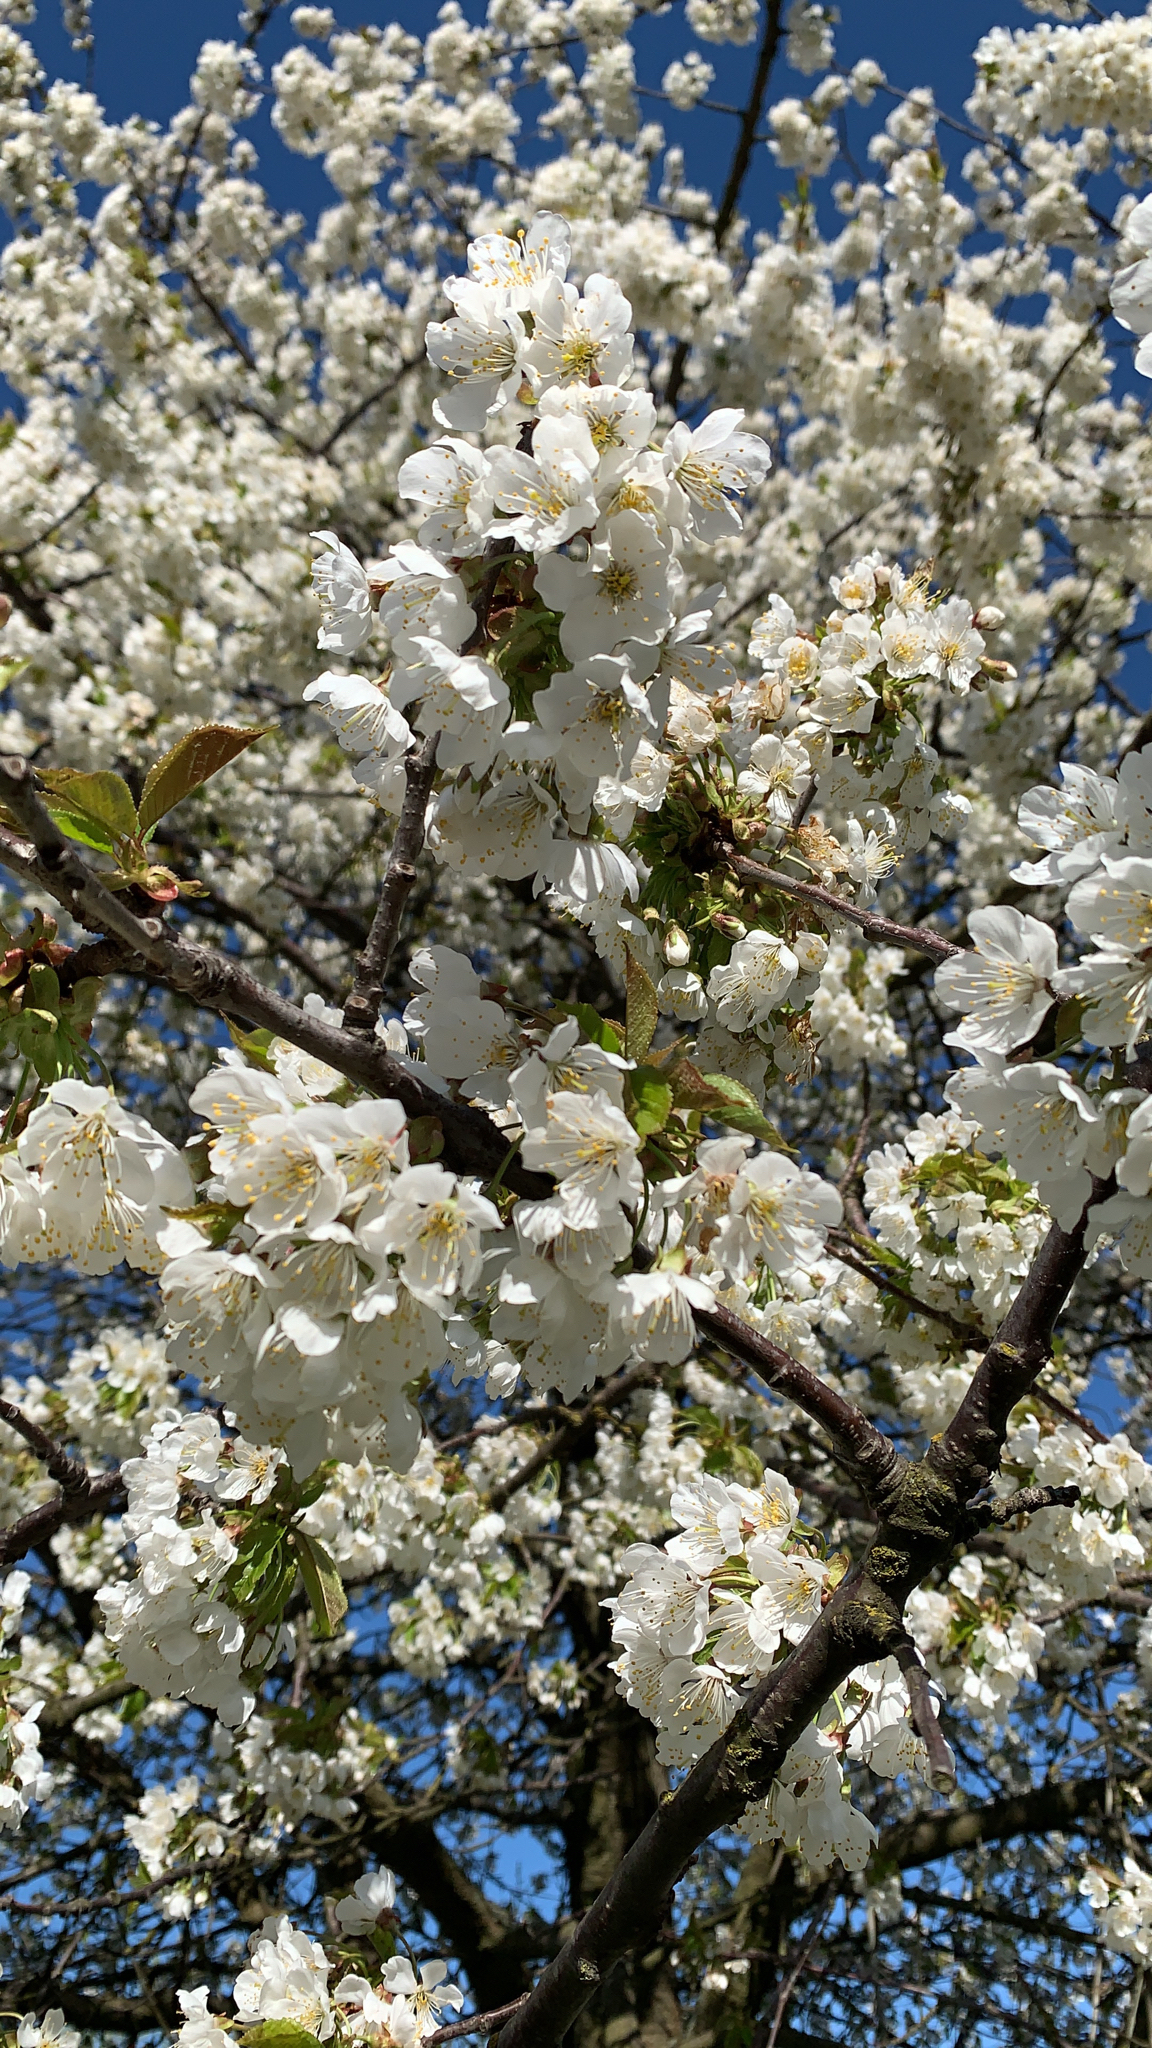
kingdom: Plantae
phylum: Tracheophyta
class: Magnoliopsida
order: Rosales
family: Rosaceae
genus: Prunus
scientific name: Prunus avium
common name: Sweet cherry
